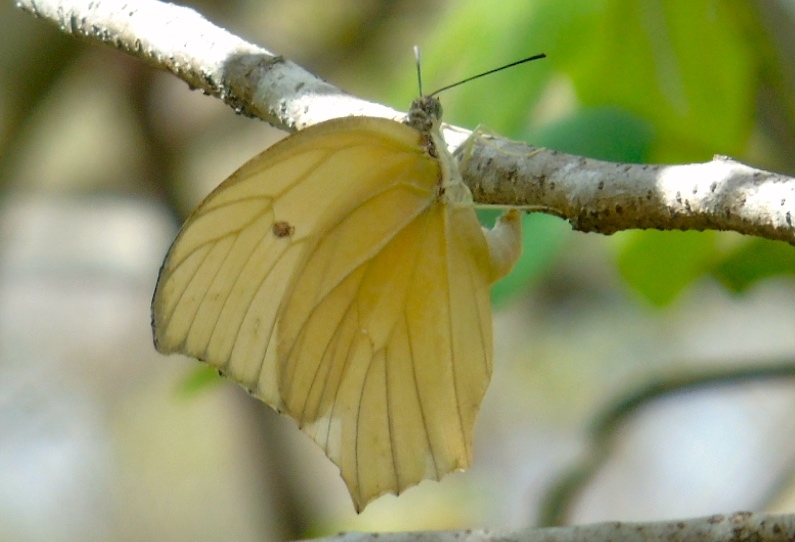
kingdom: Animalia
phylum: Arthropoda
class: Insecta
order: Lepidoptera
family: Pieridae
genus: Anteos
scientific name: Anteos maerula
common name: Angled sulphur
